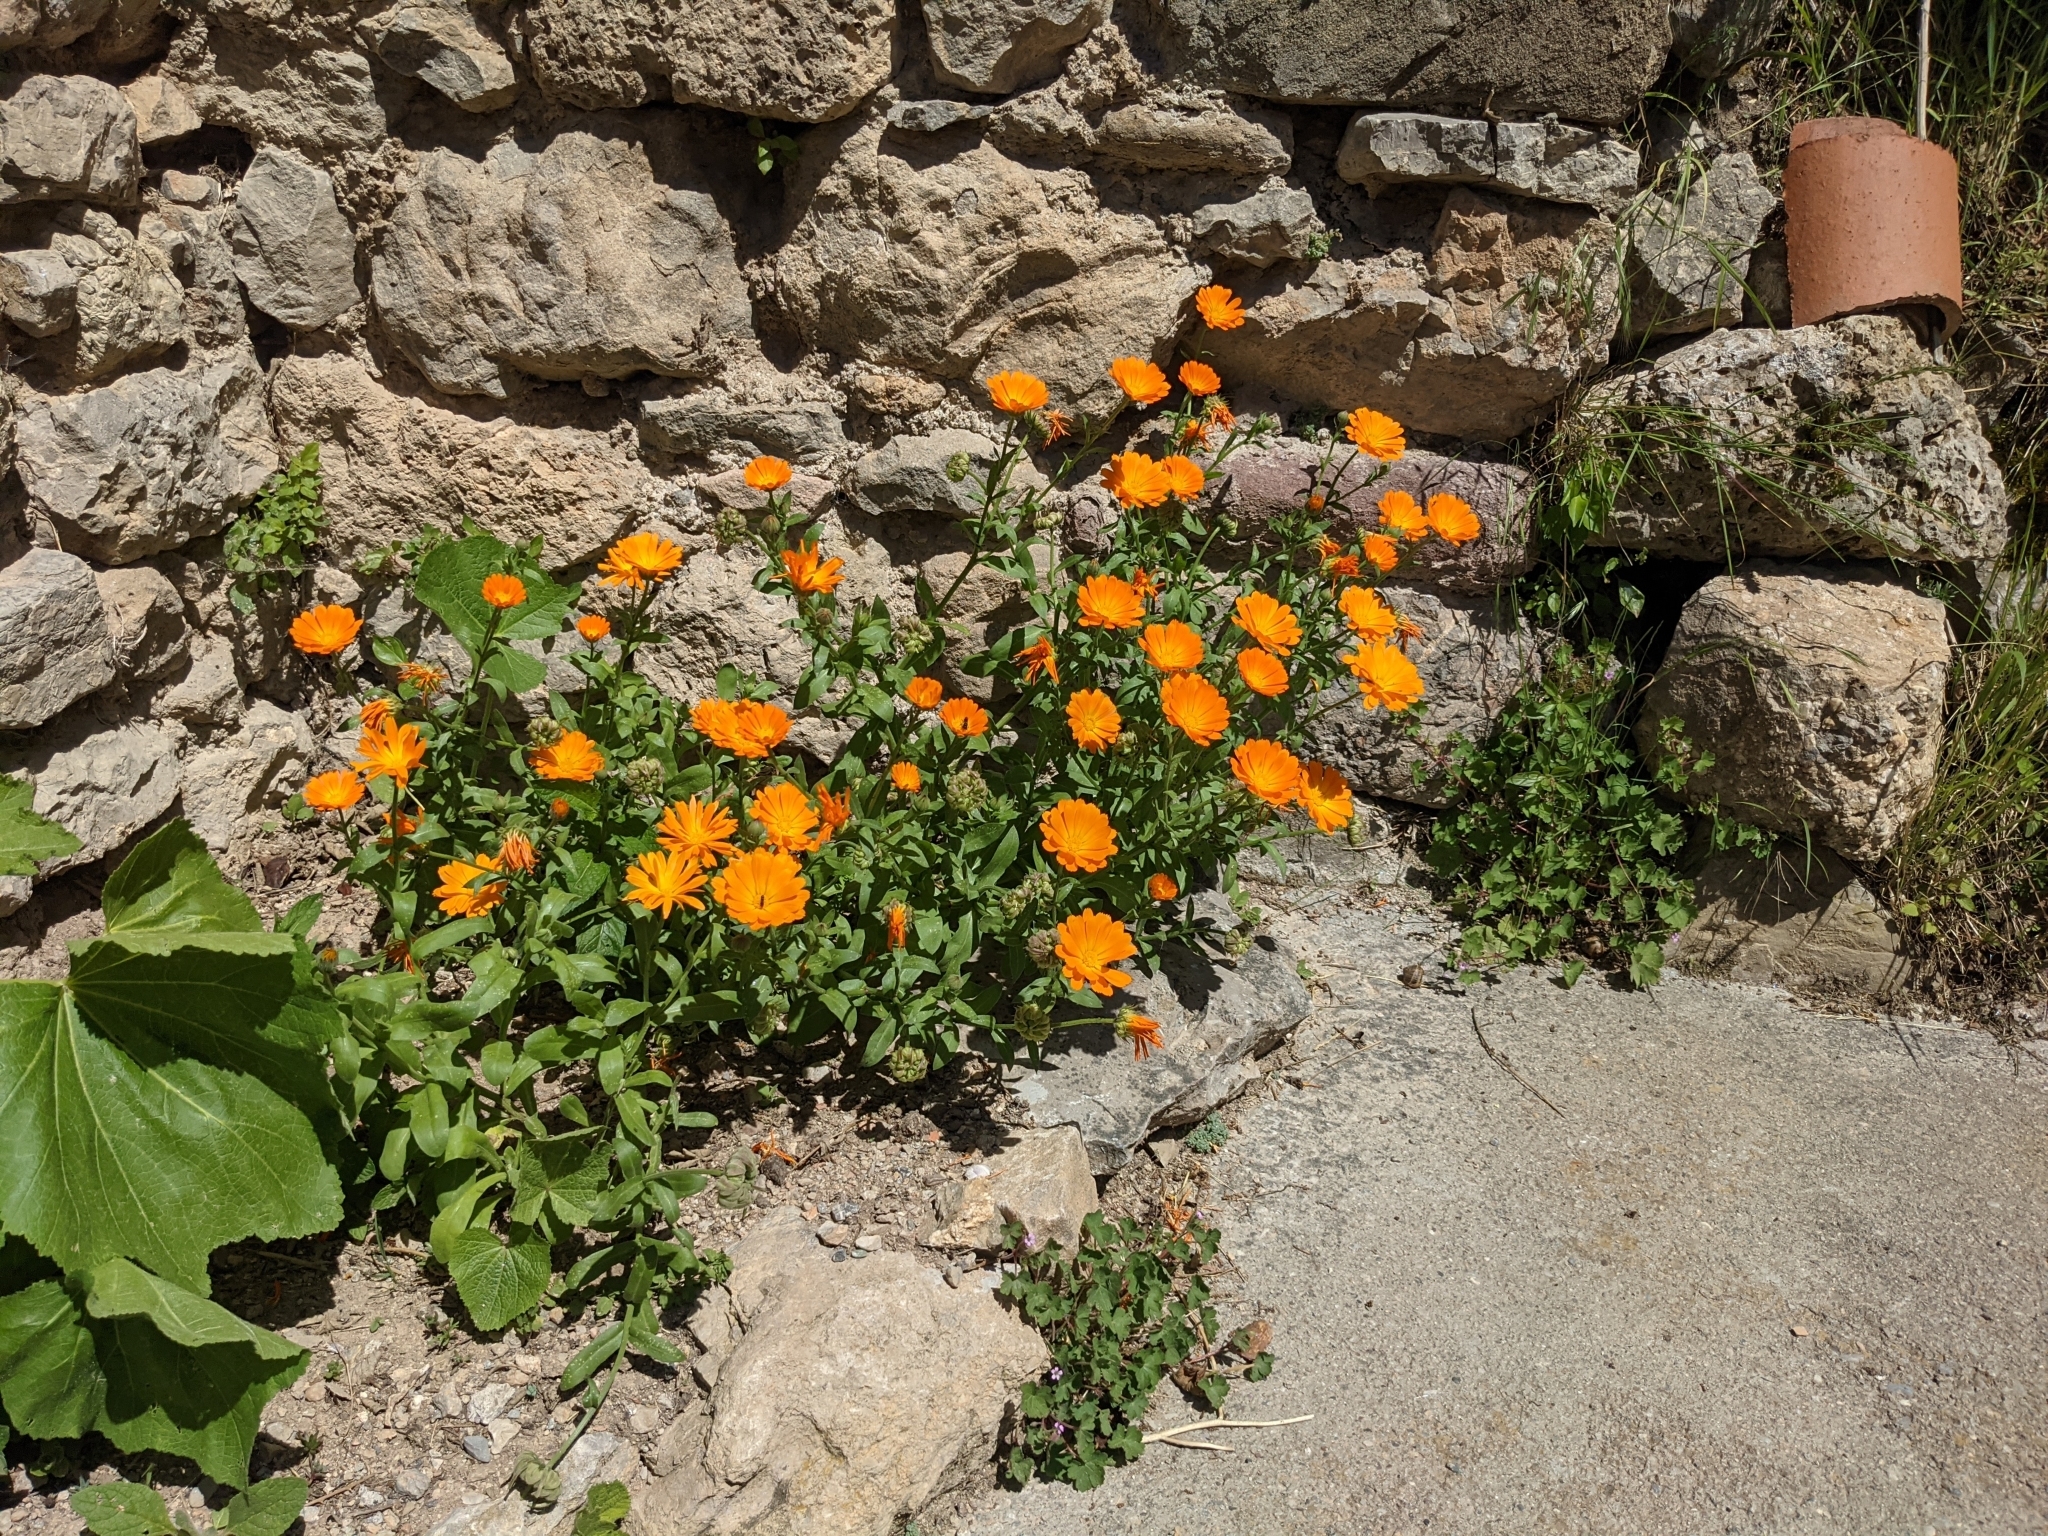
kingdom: Plantae
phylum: Tracheophyta
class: Magnoliopsida
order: Asterales
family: Asteraceae
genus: Calendula
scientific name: Calendula officinalis
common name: Pot marigold
